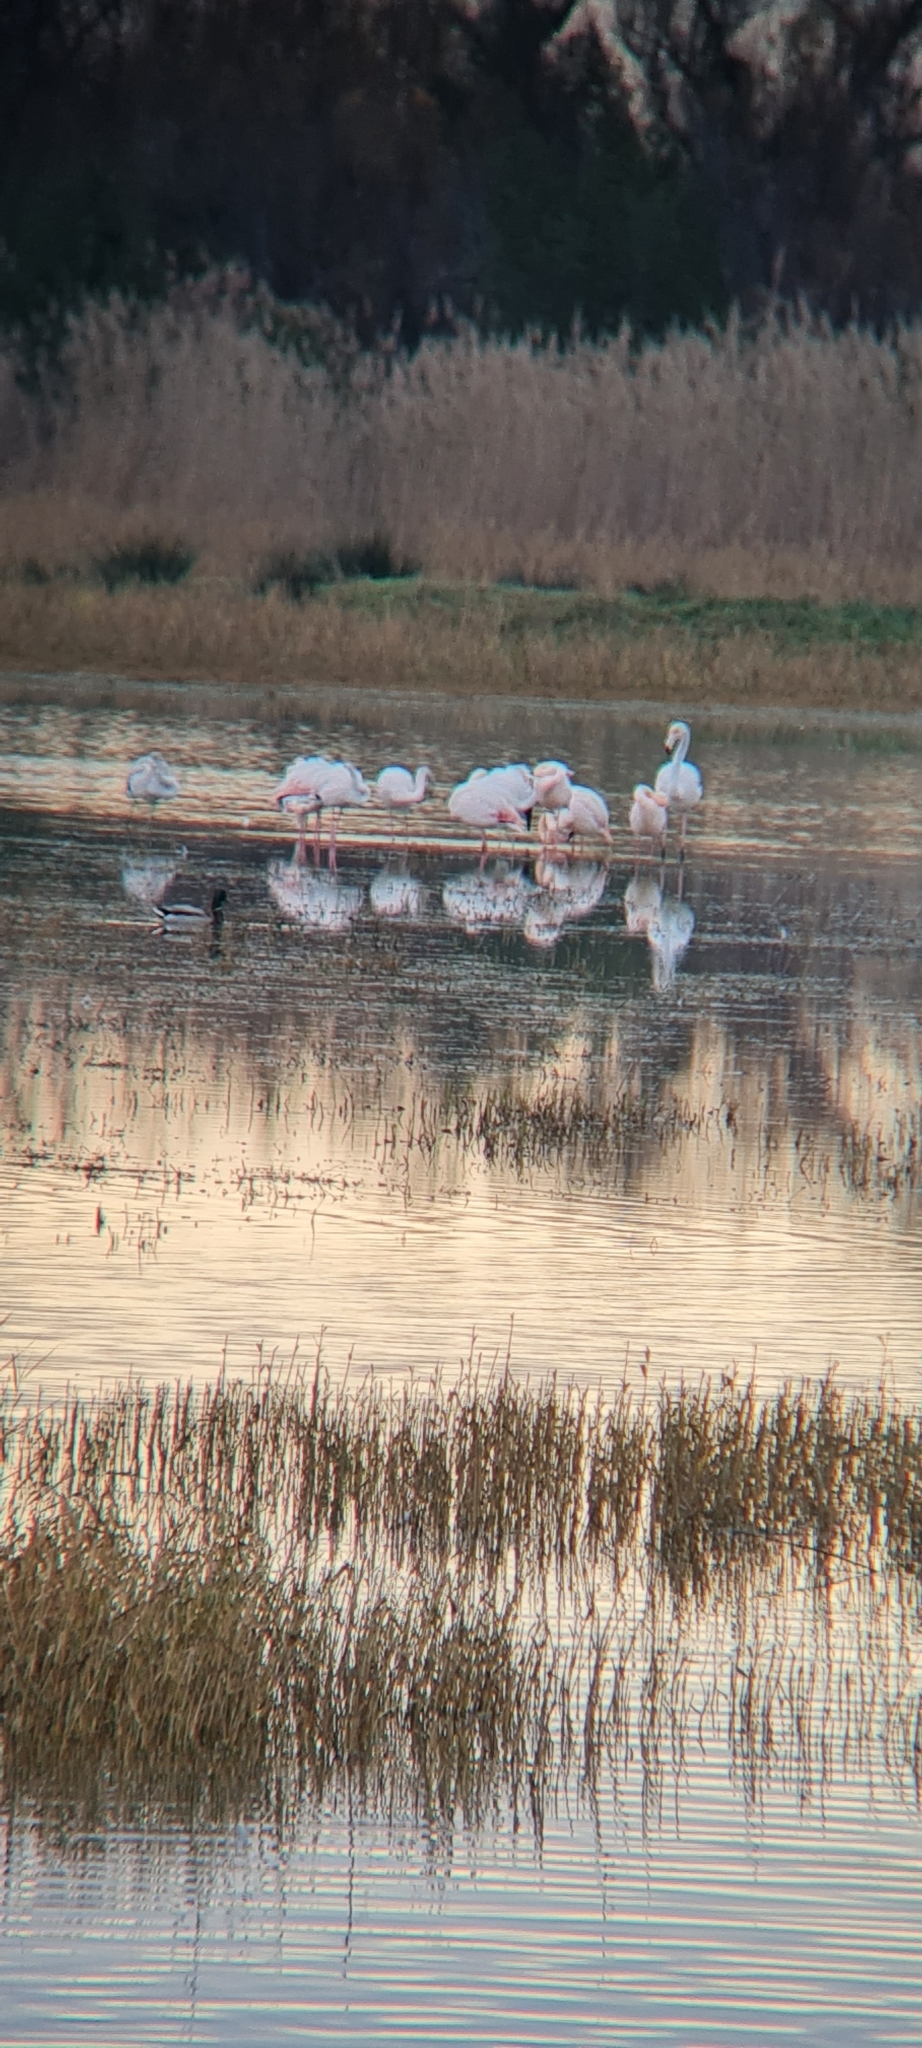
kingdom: Animalia
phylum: Chordata
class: Aves
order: Phoenicopteriformes
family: Phoenicopteridae
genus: Phoenicopterus
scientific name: Phoenicopterus roseus
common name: Greater flamingo
